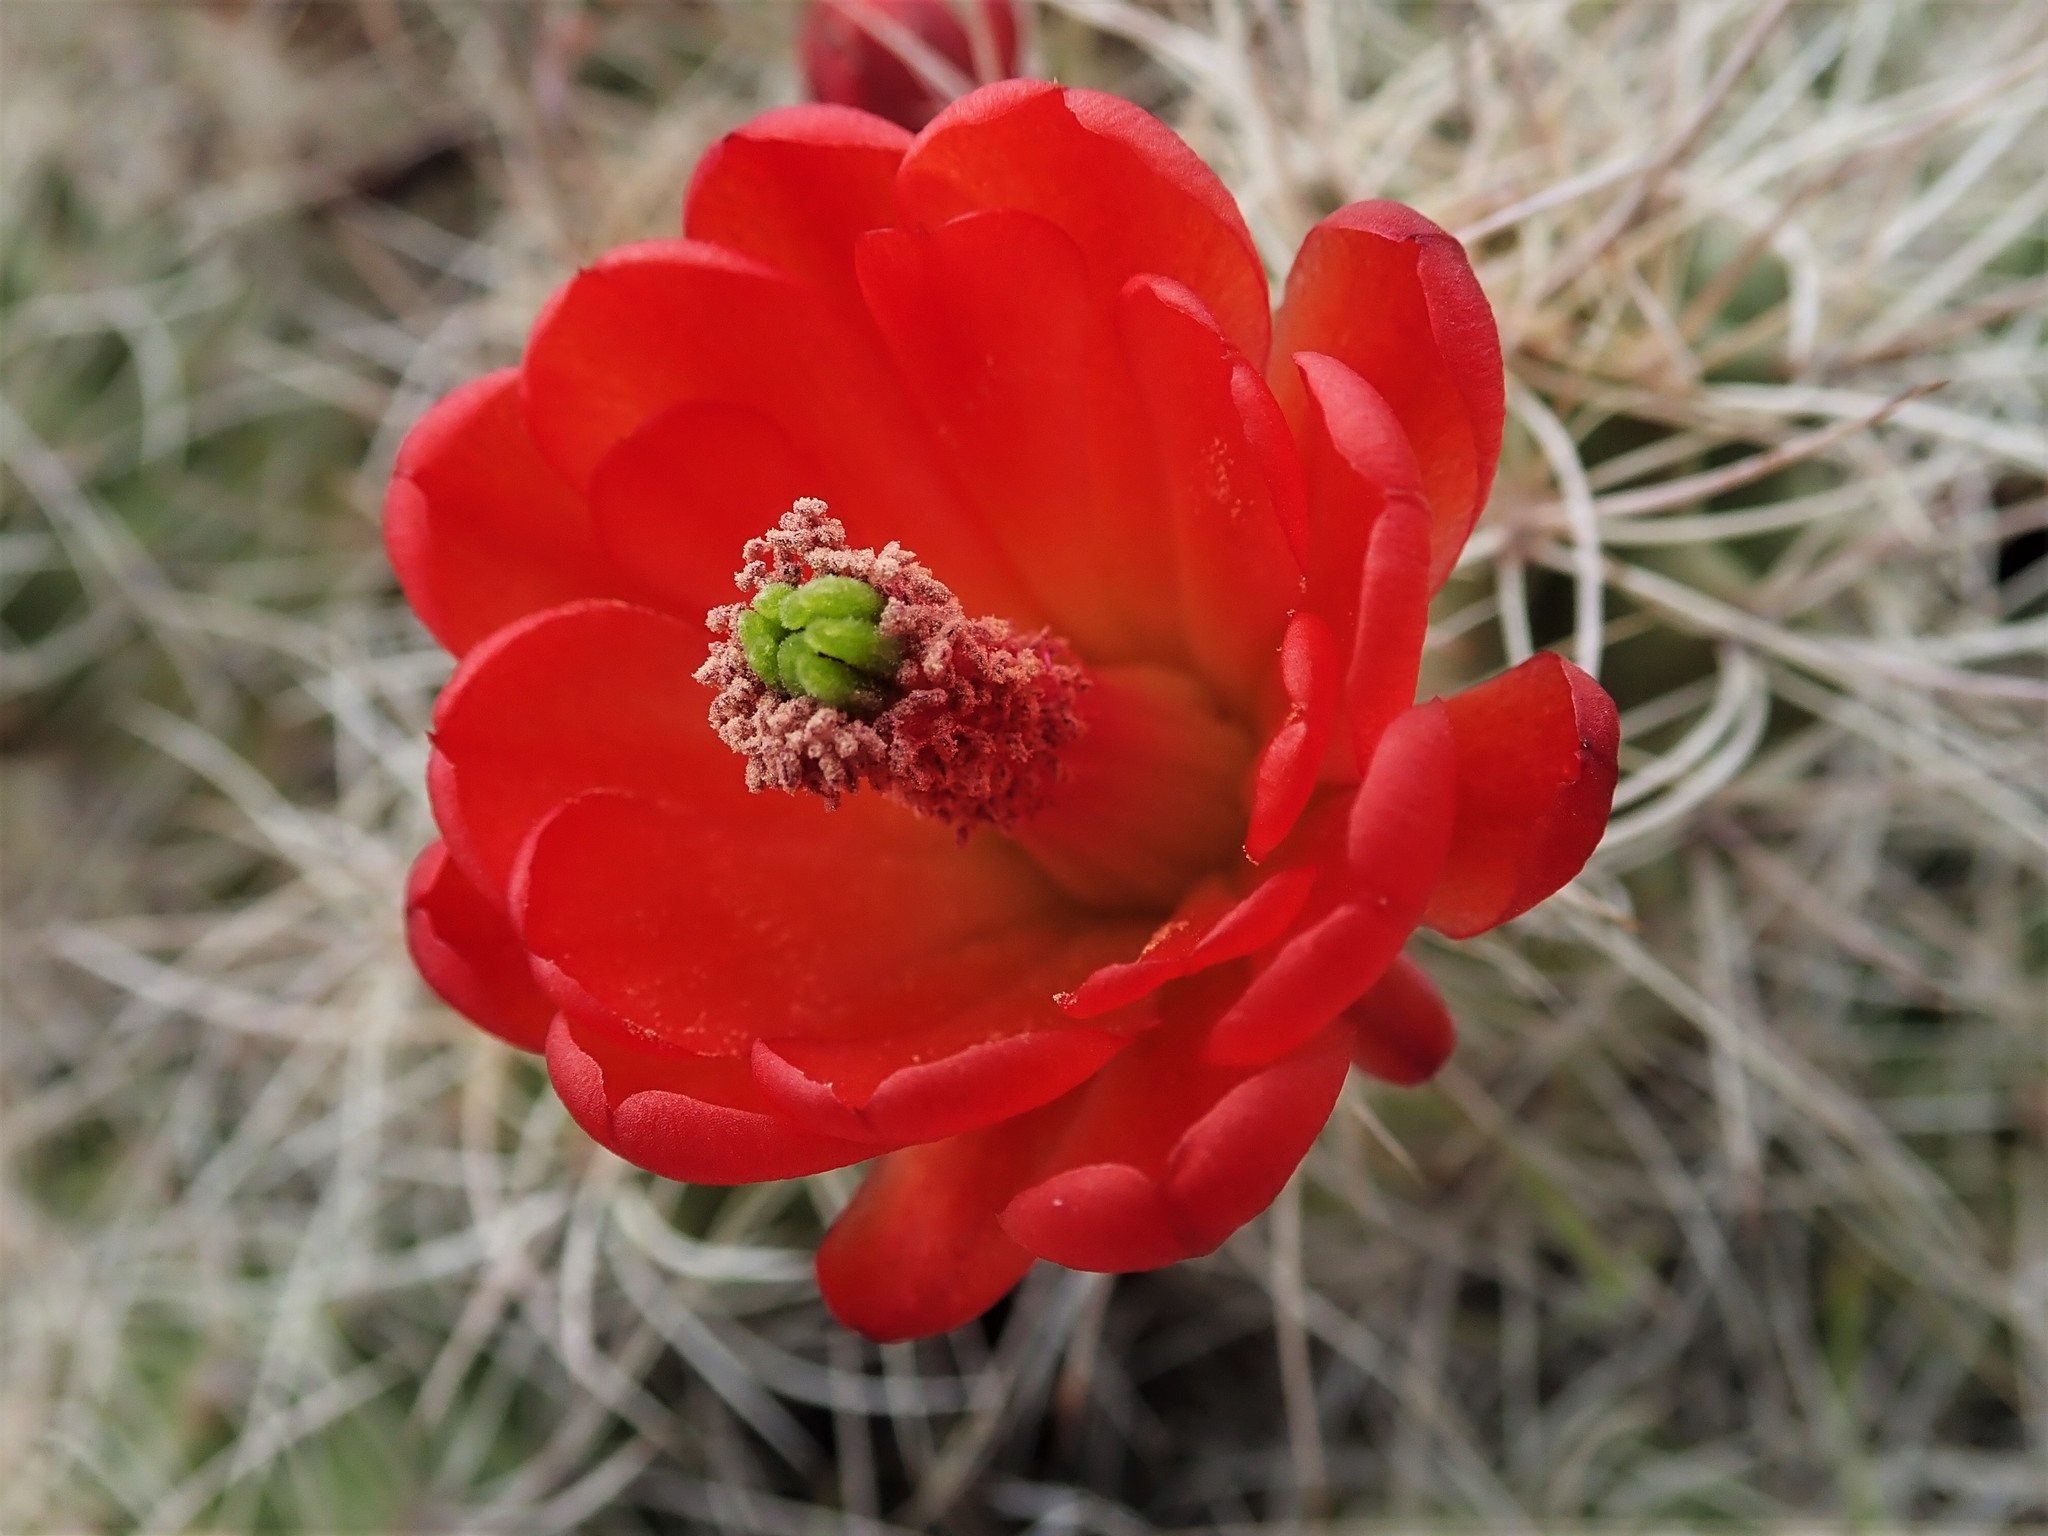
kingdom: Plantae
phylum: Tracheophyta
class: Magnoliopsida
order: Caryophyllales
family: Cactaceae
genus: Echinocereus
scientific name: Echinocereus triglochidiatus
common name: Claretcup hedgehog
